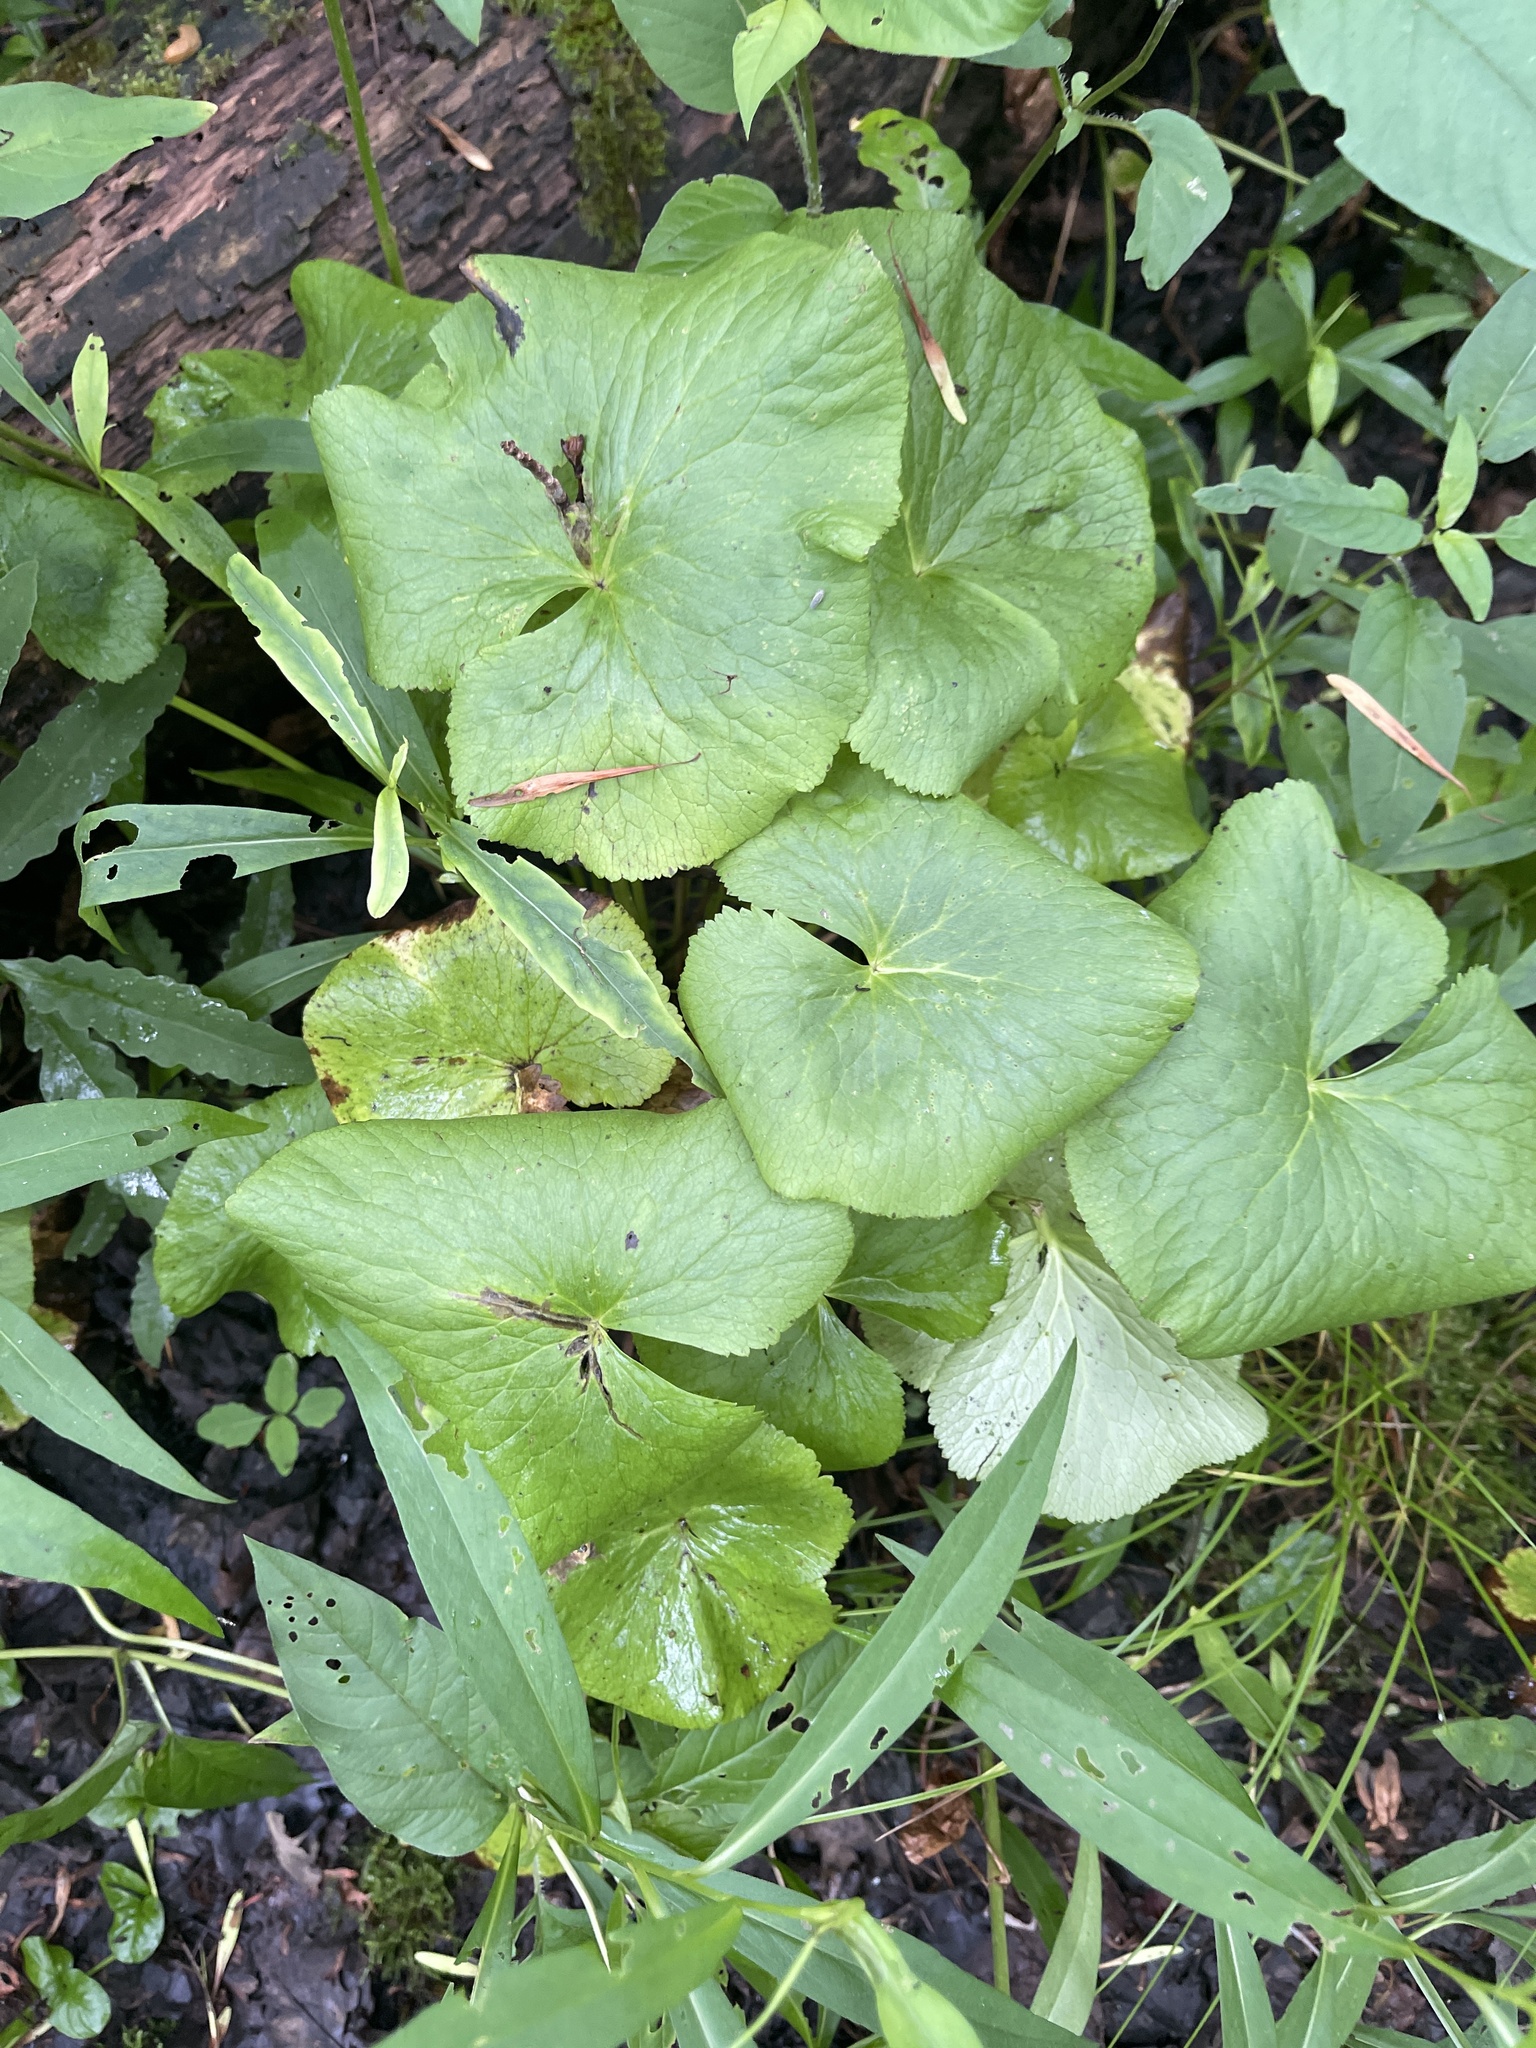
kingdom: Plantae
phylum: Tracheophyta
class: Magnoliopsida
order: Ranunculales
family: Ranunculaceae
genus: Caltha
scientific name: Caltha palustris
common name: Marsh marigold
